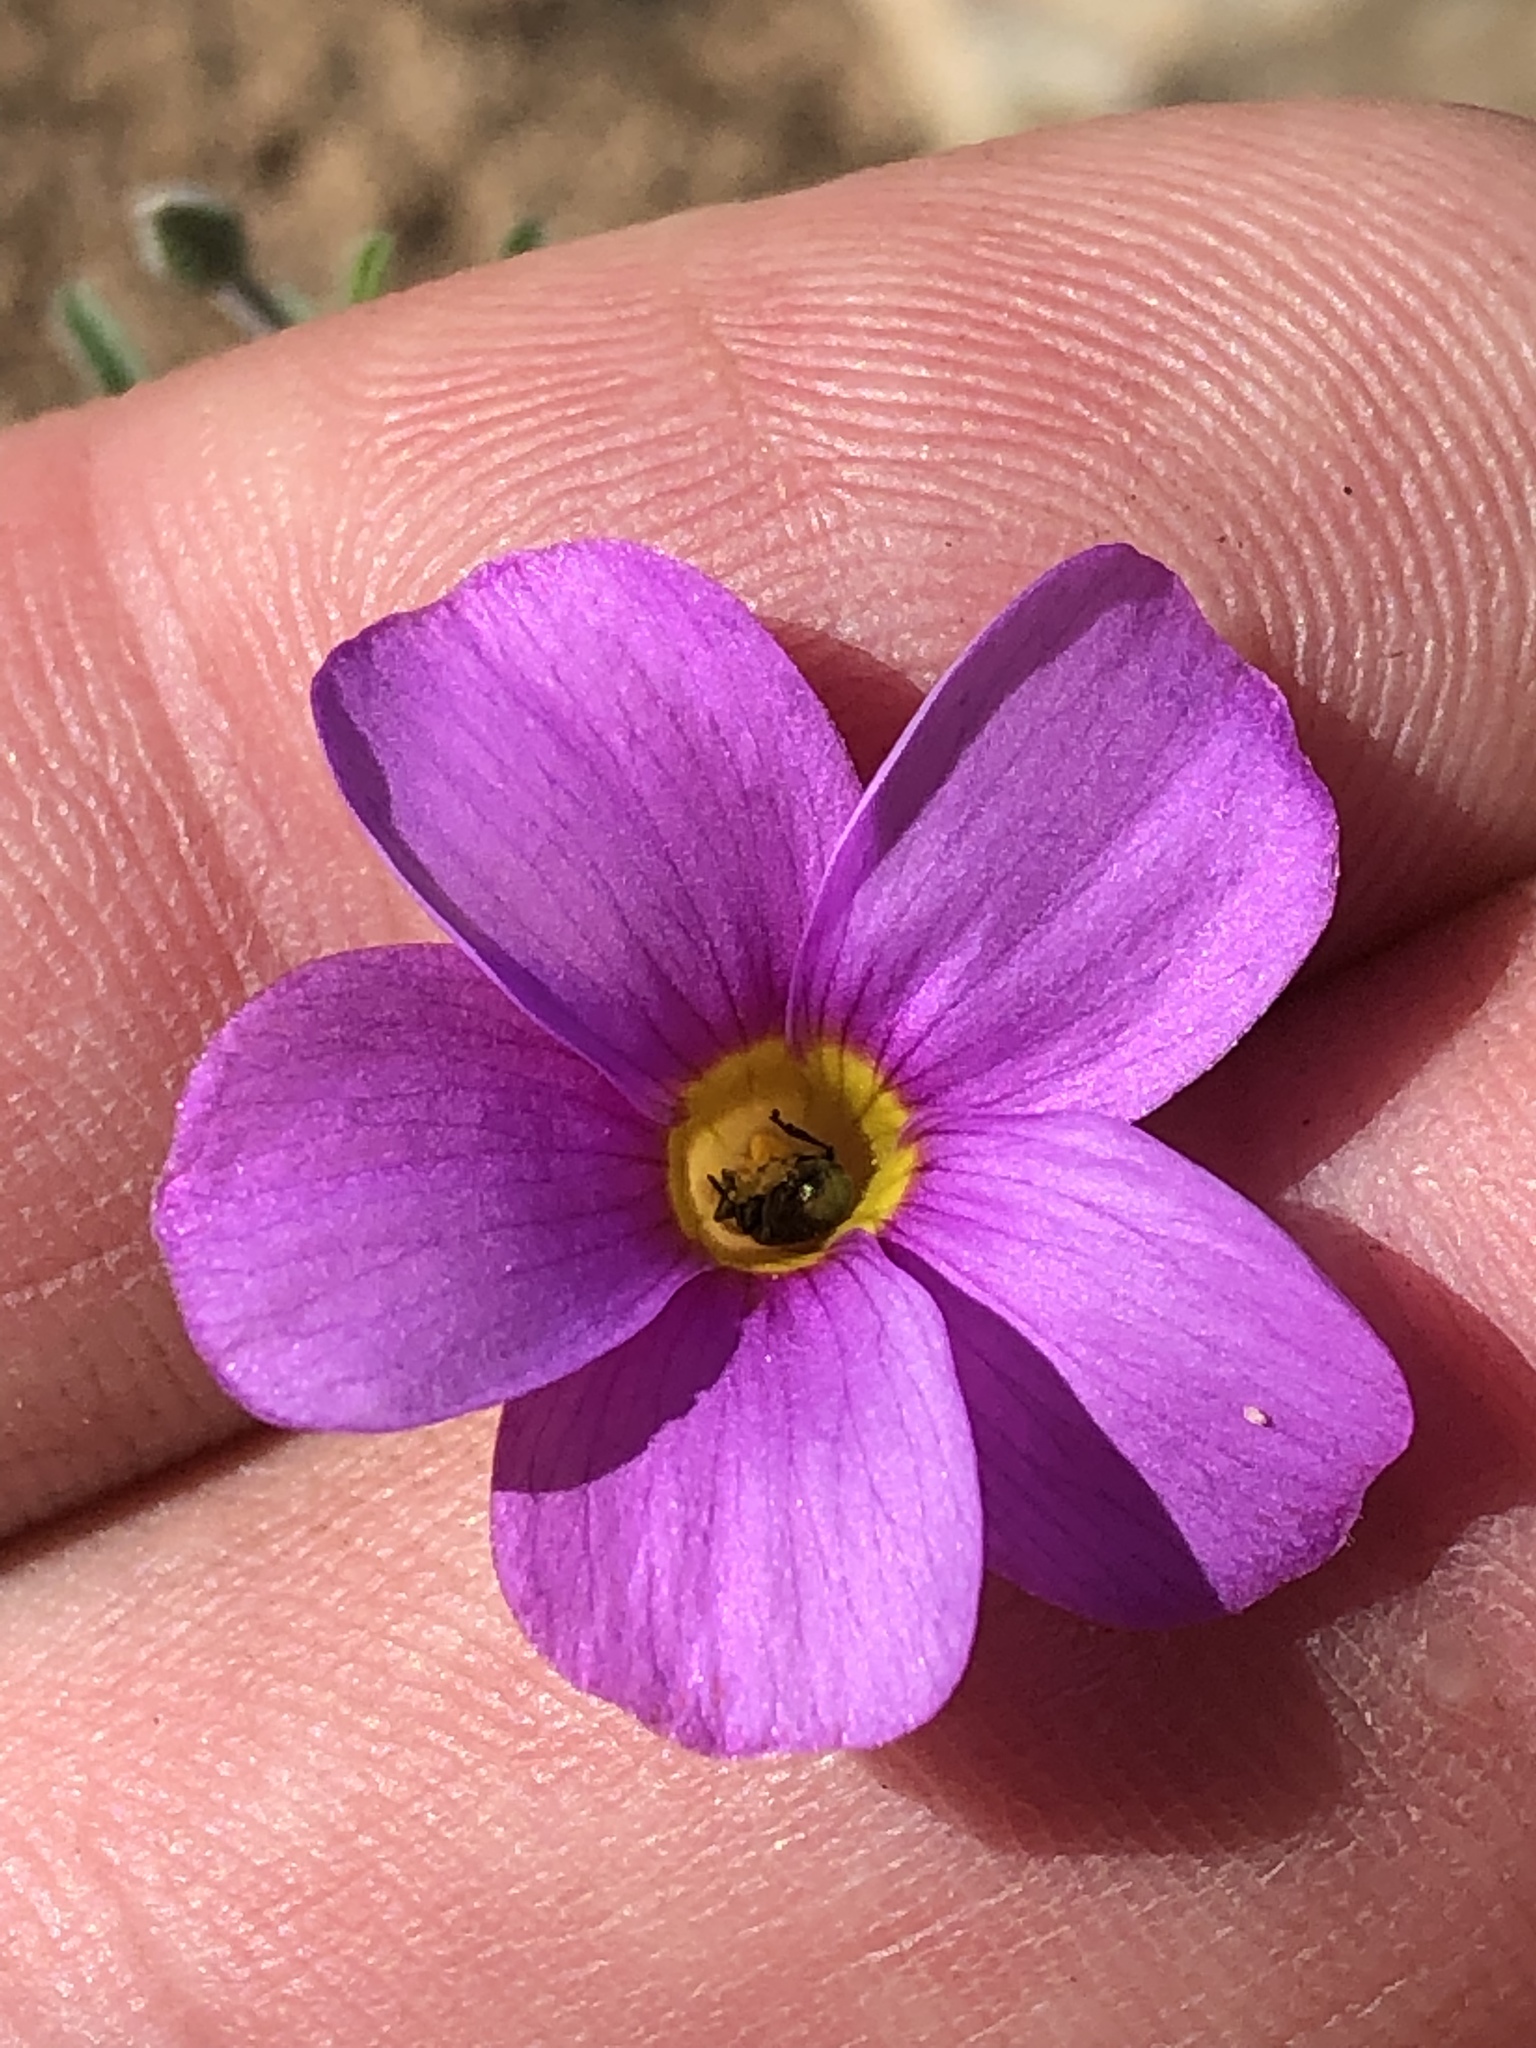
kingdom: Plantae
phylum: Tracheophyta
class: Magnoliopsida
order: Oxalidales
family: Oxalidaceae
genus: Oxalis
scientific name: Oxalis ciliaris
